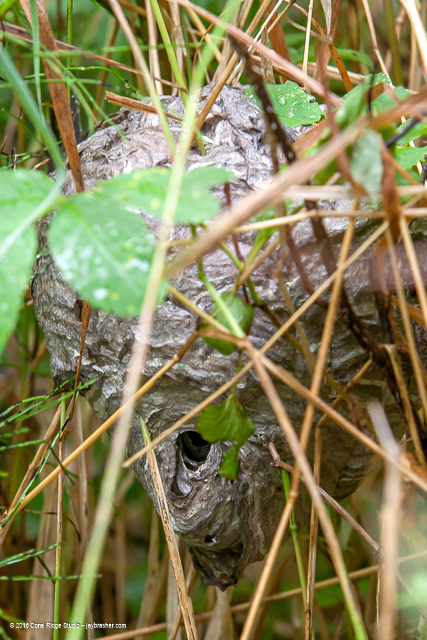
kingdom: Animalia
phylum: Arthropoda
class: Insecta
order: Hymenoptera
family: Vespidae
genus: Dolichovespula
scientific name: Dolichovespula maculata
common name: Bald-faced hornet
